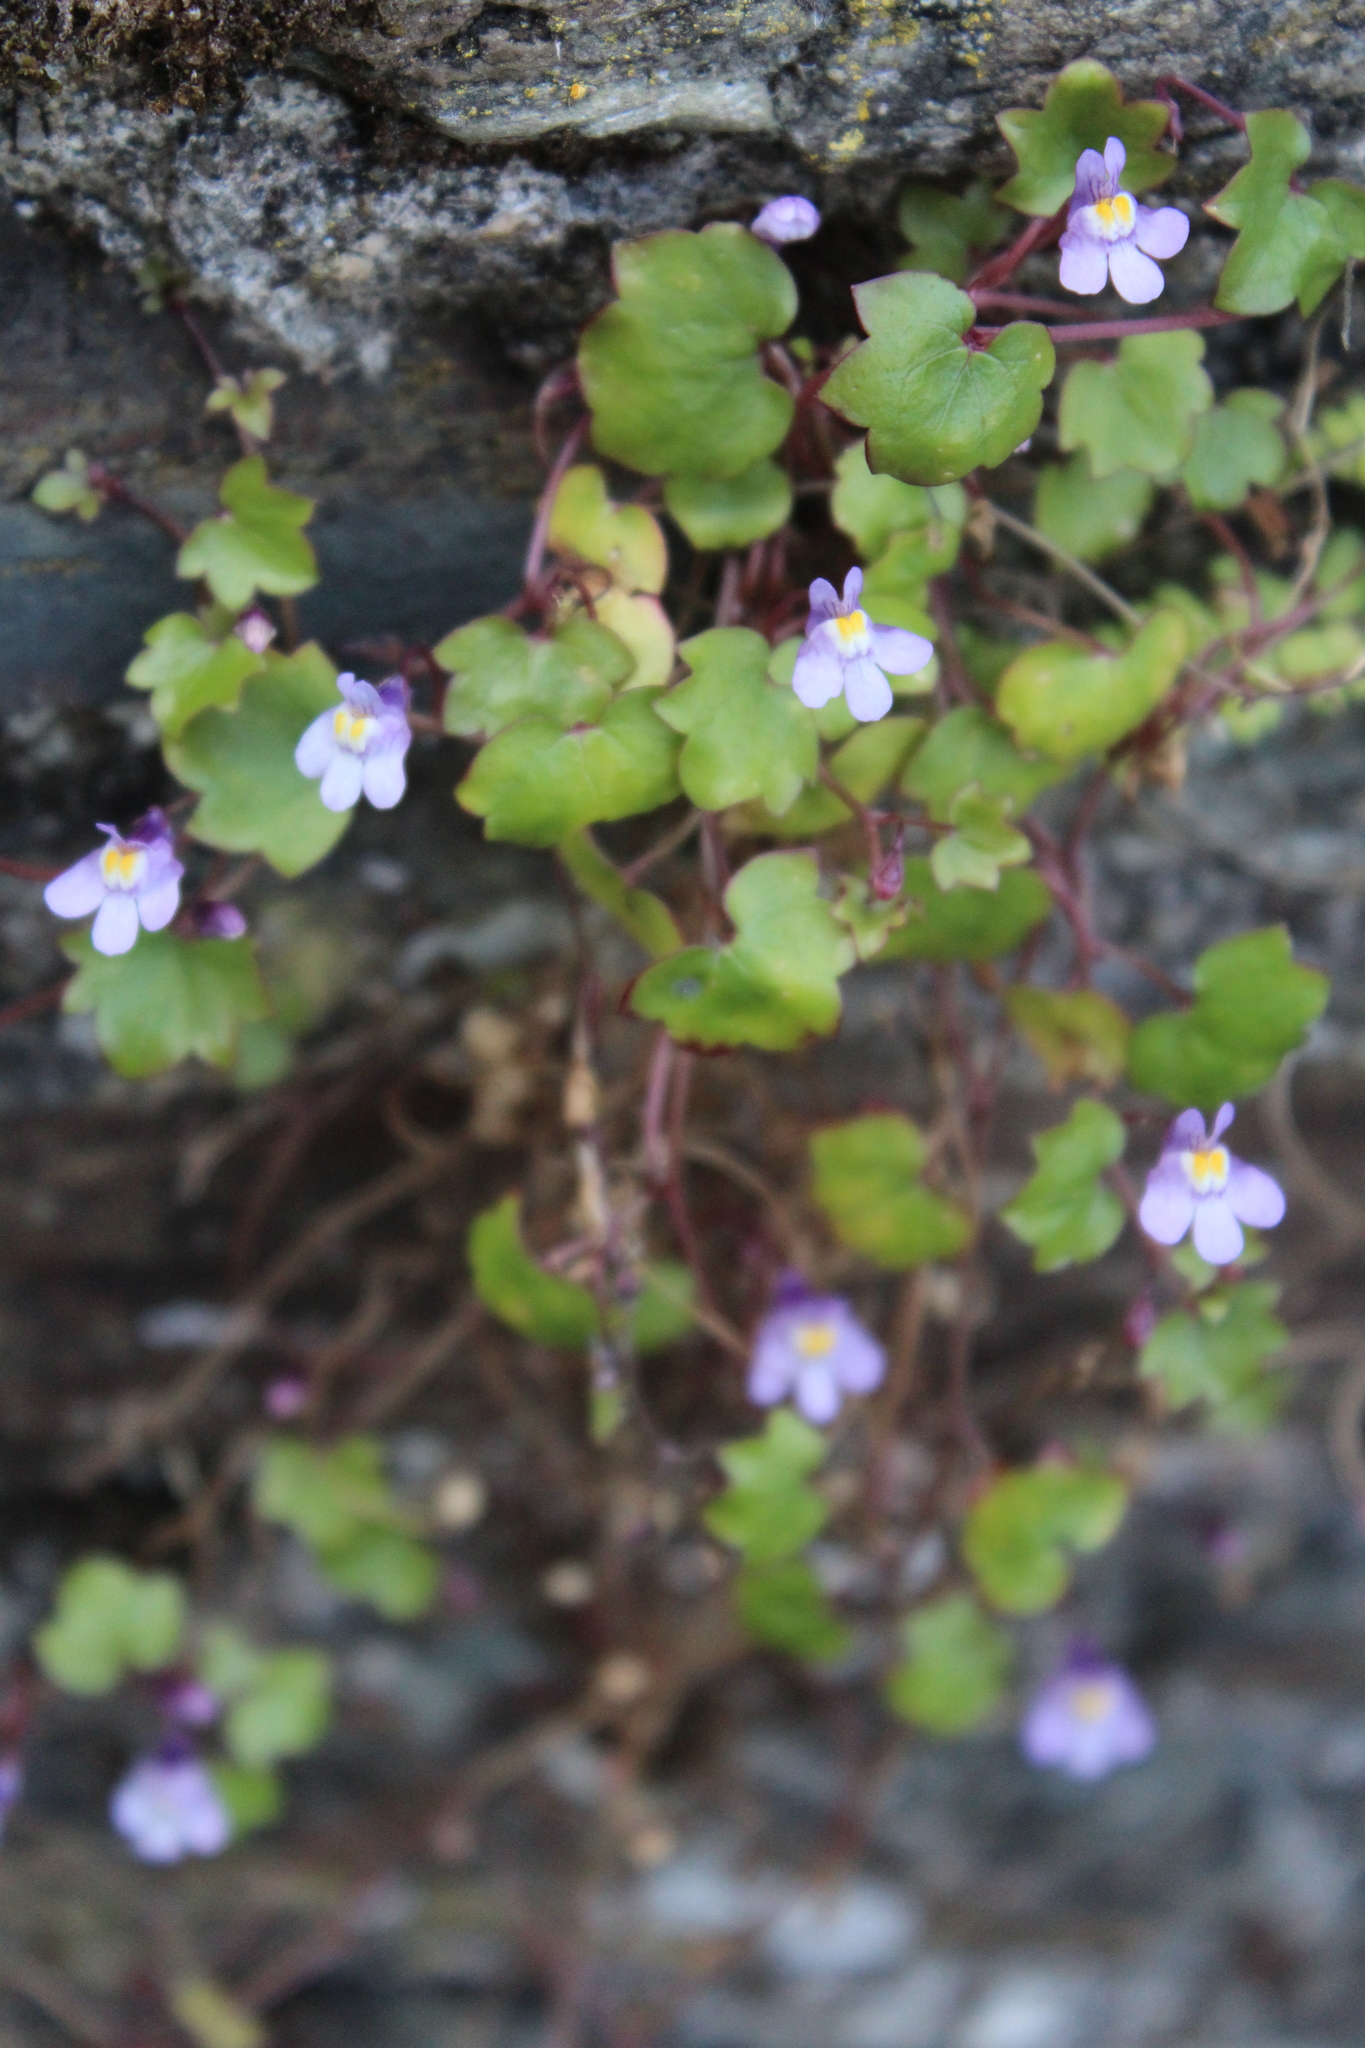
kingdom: Plantae
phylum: Tracheophyta
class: Magnoliopsida
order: Lamiales
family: Plantaginaceae
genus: Cymbalaria
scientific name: Cymbalaria muralis
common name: Ivy-leaved toadflax
